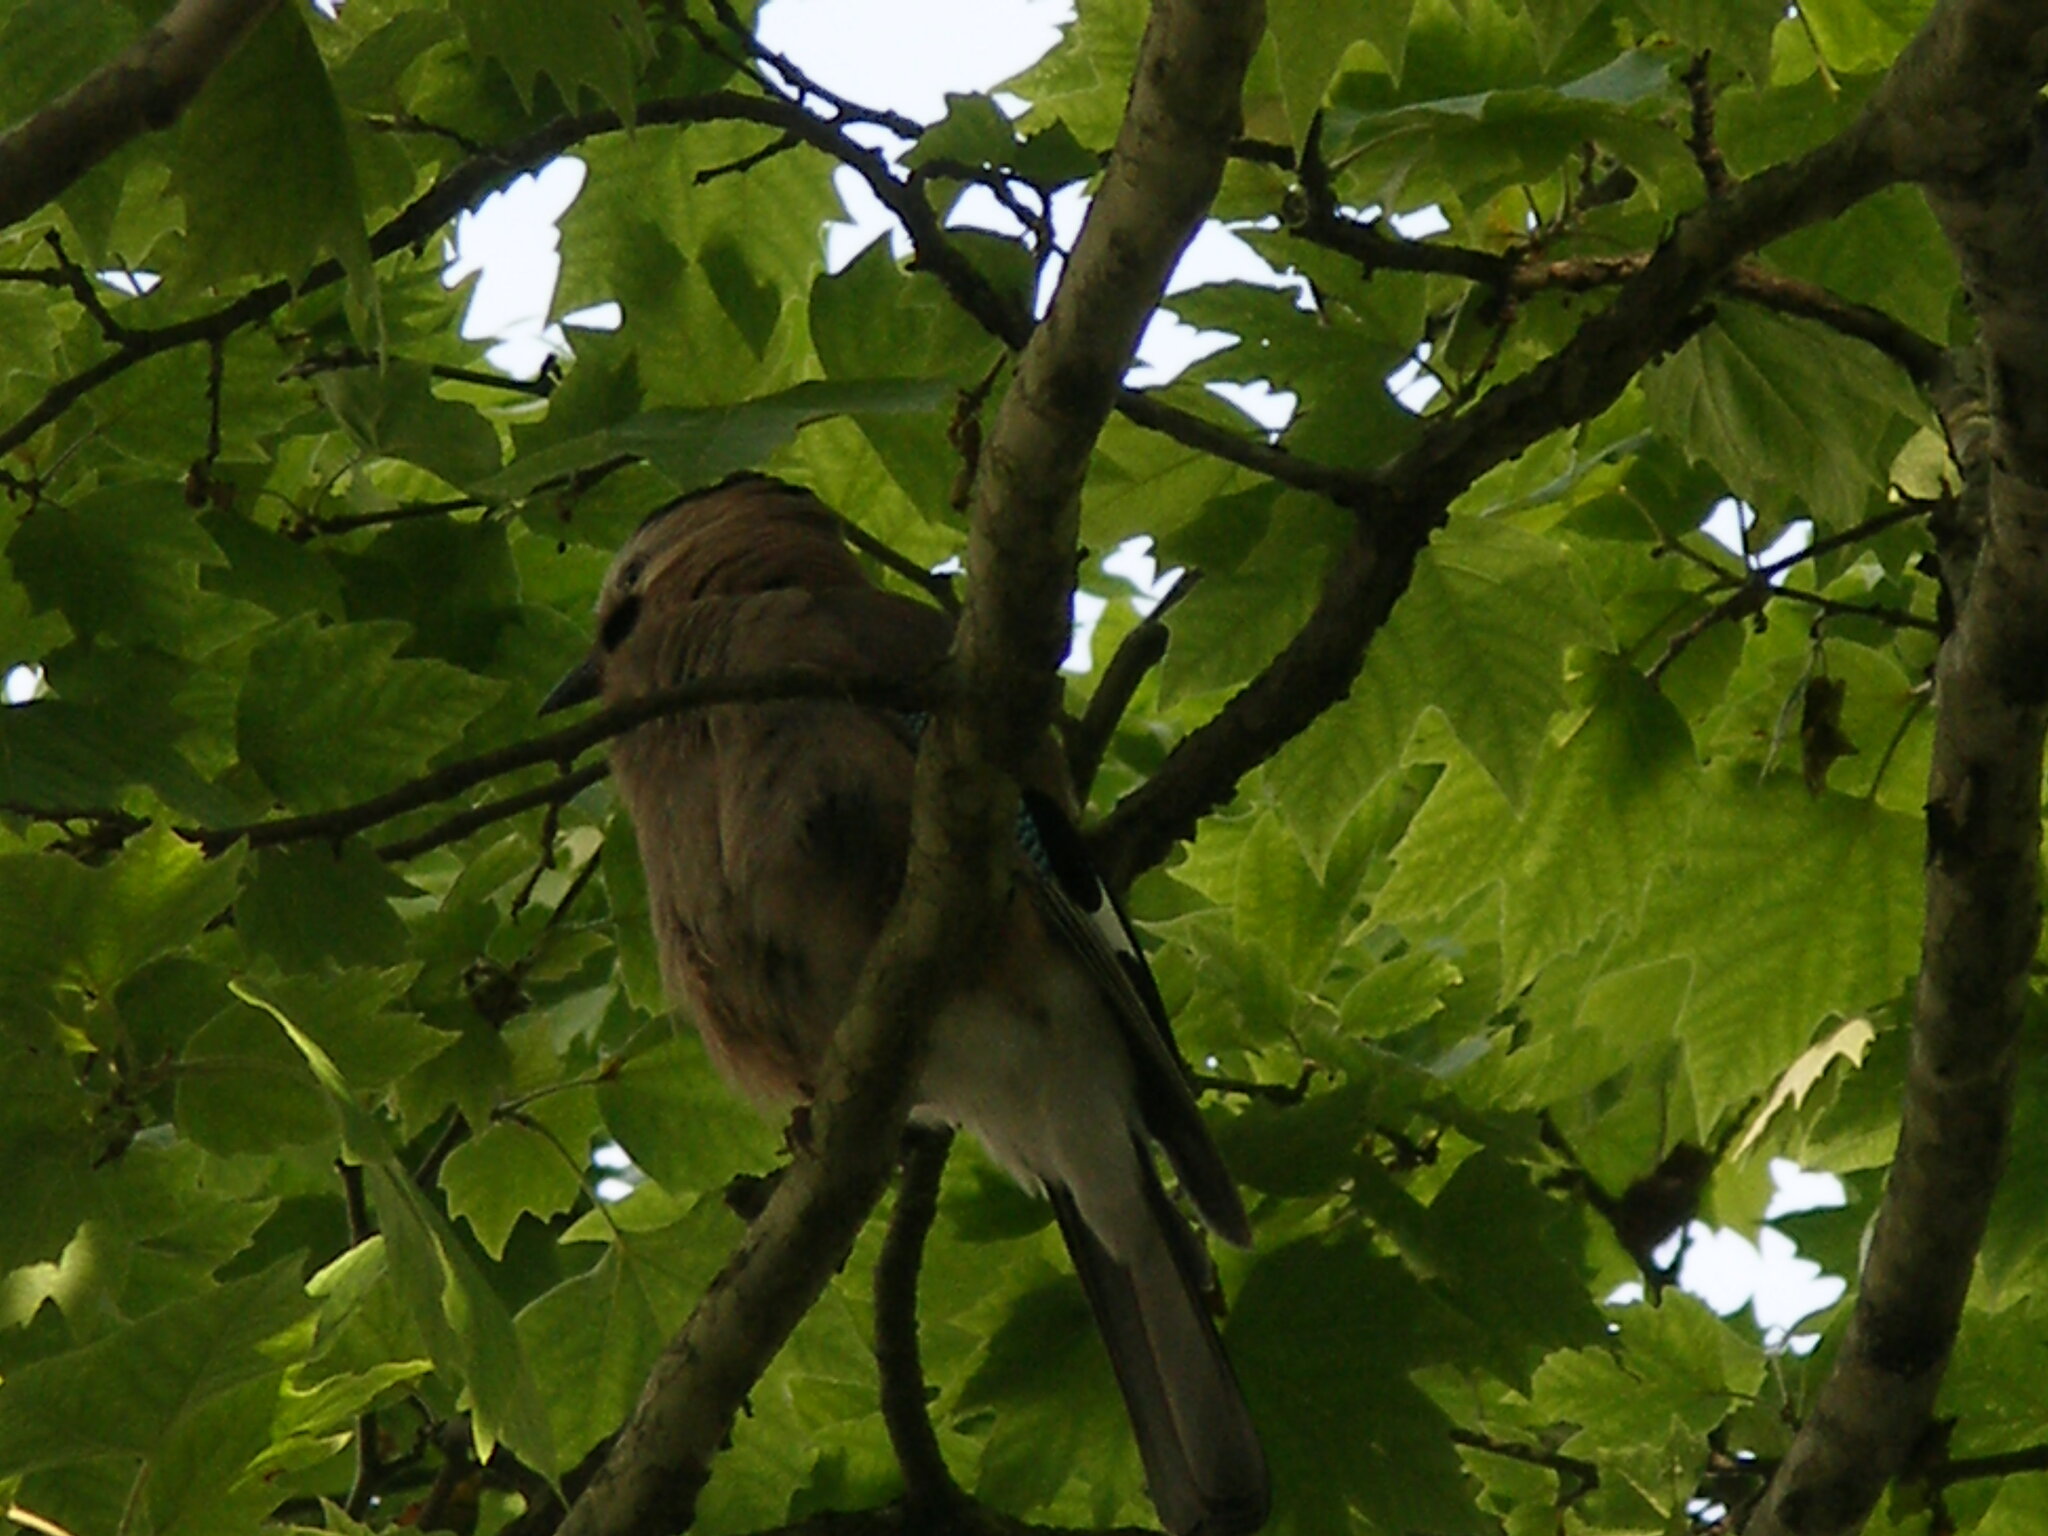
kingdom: Animalia
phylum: Chordata
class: Aves
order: Passeriformes
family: Corvidae
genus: Garrulus
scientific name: Garrulus glandarius
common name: Eurasian jay
